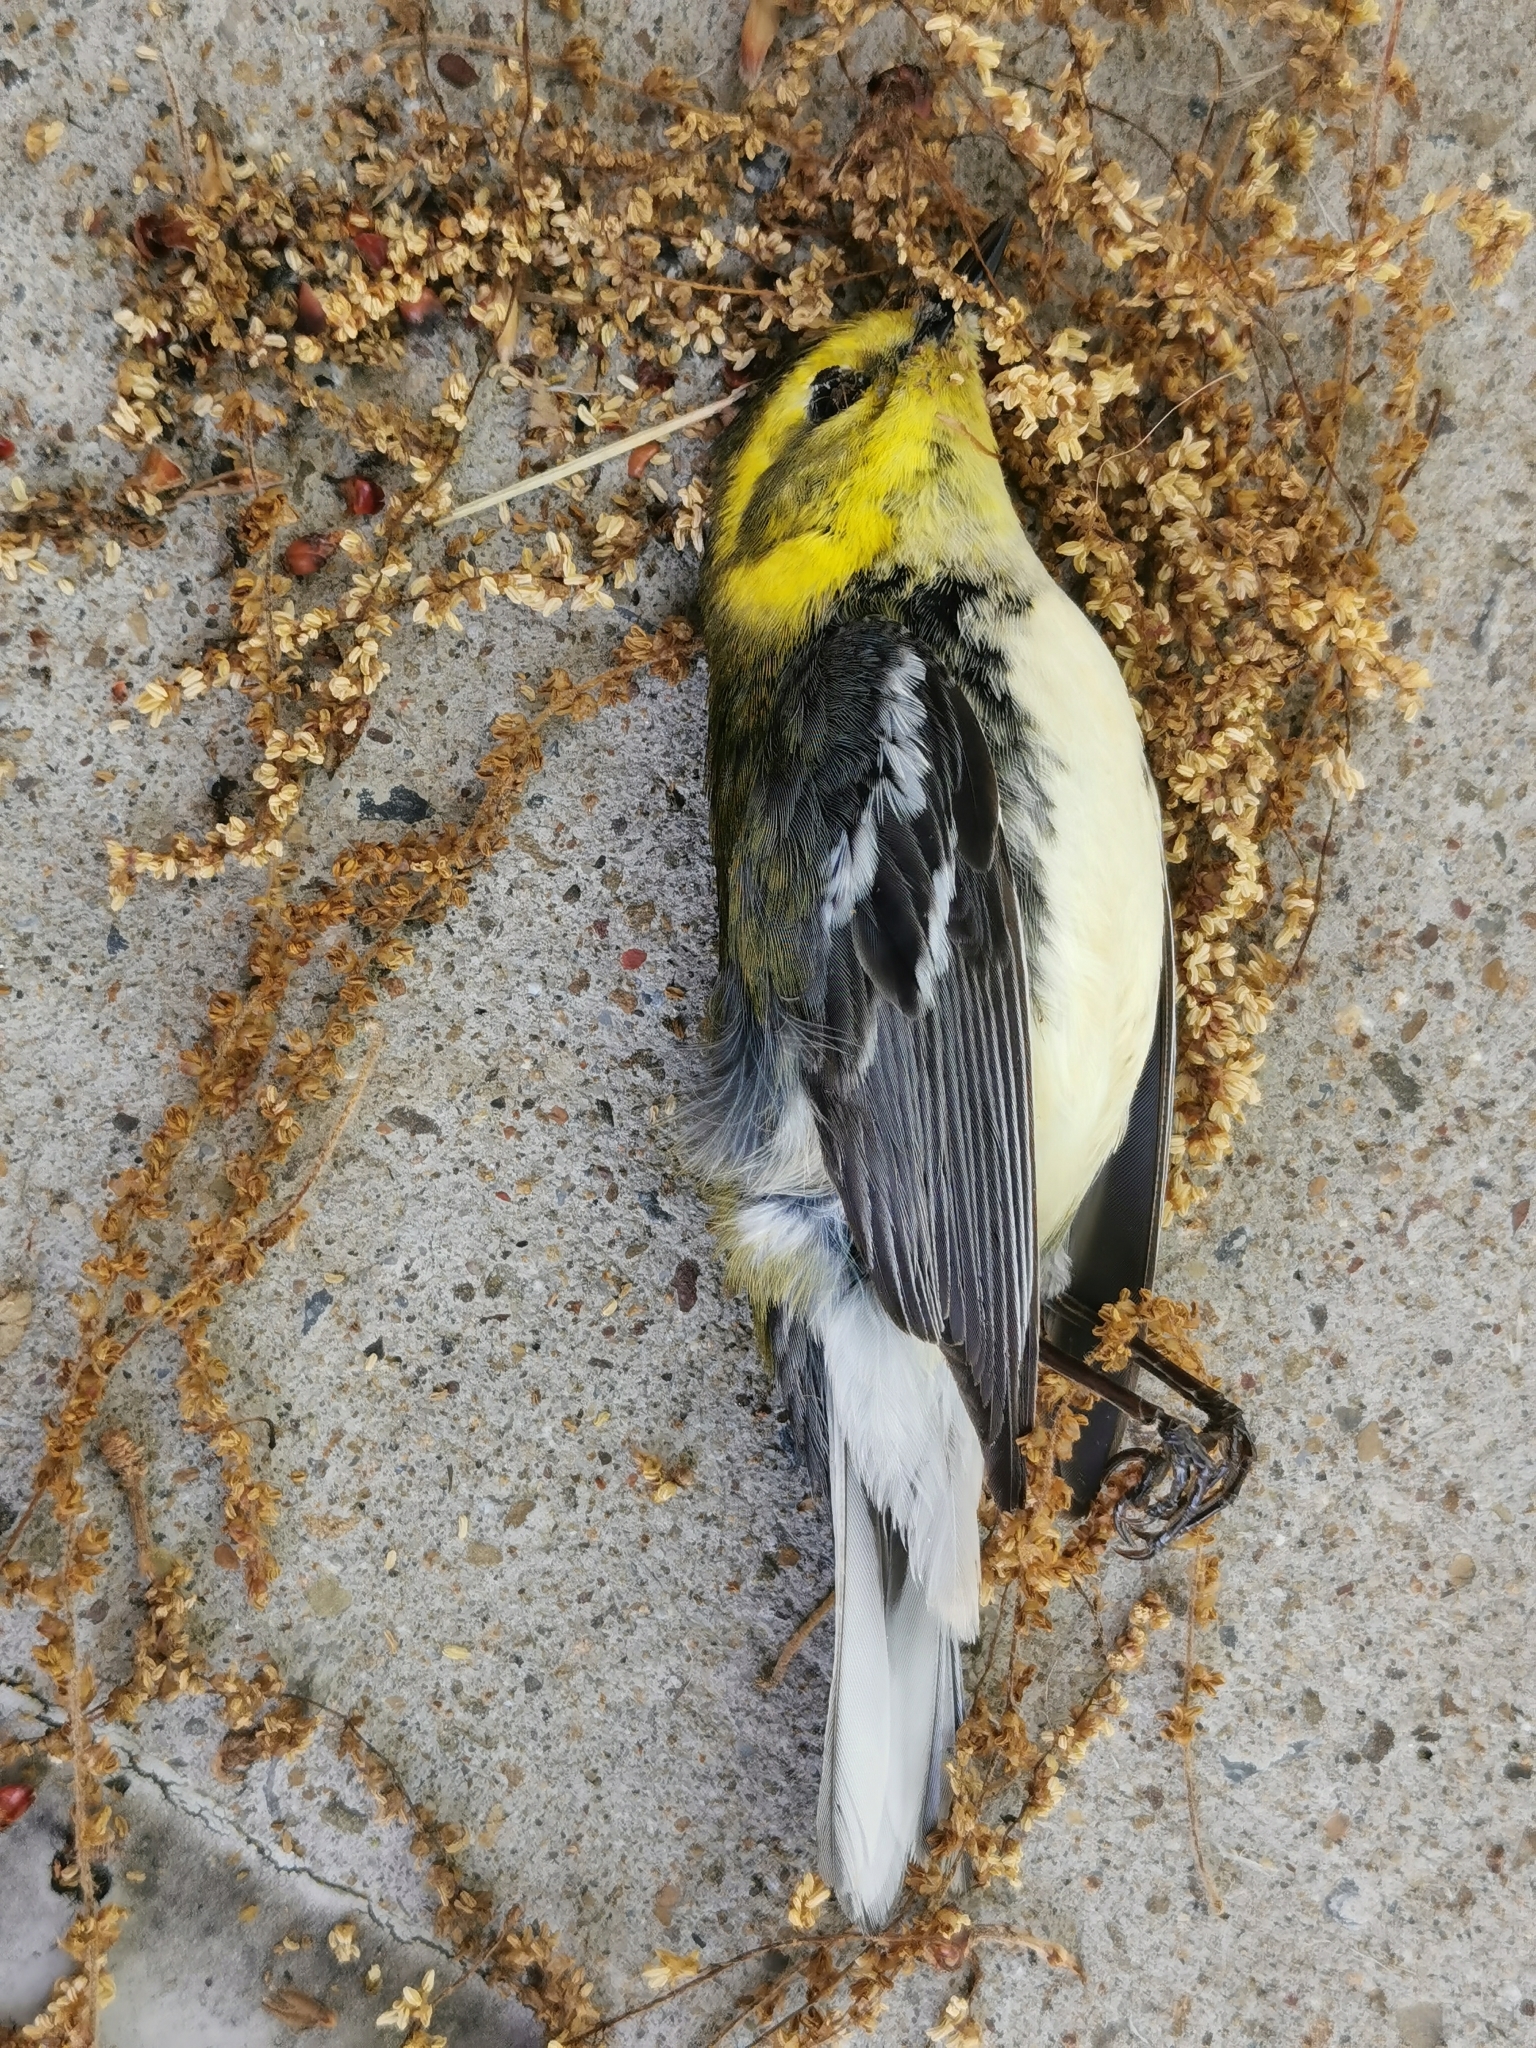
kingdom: Animalia
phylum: Chordata
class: Aves
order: Passeriformes
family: Parulidae
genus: Setophaga
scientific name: Setophaga virens
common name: Black-throated green warbler
